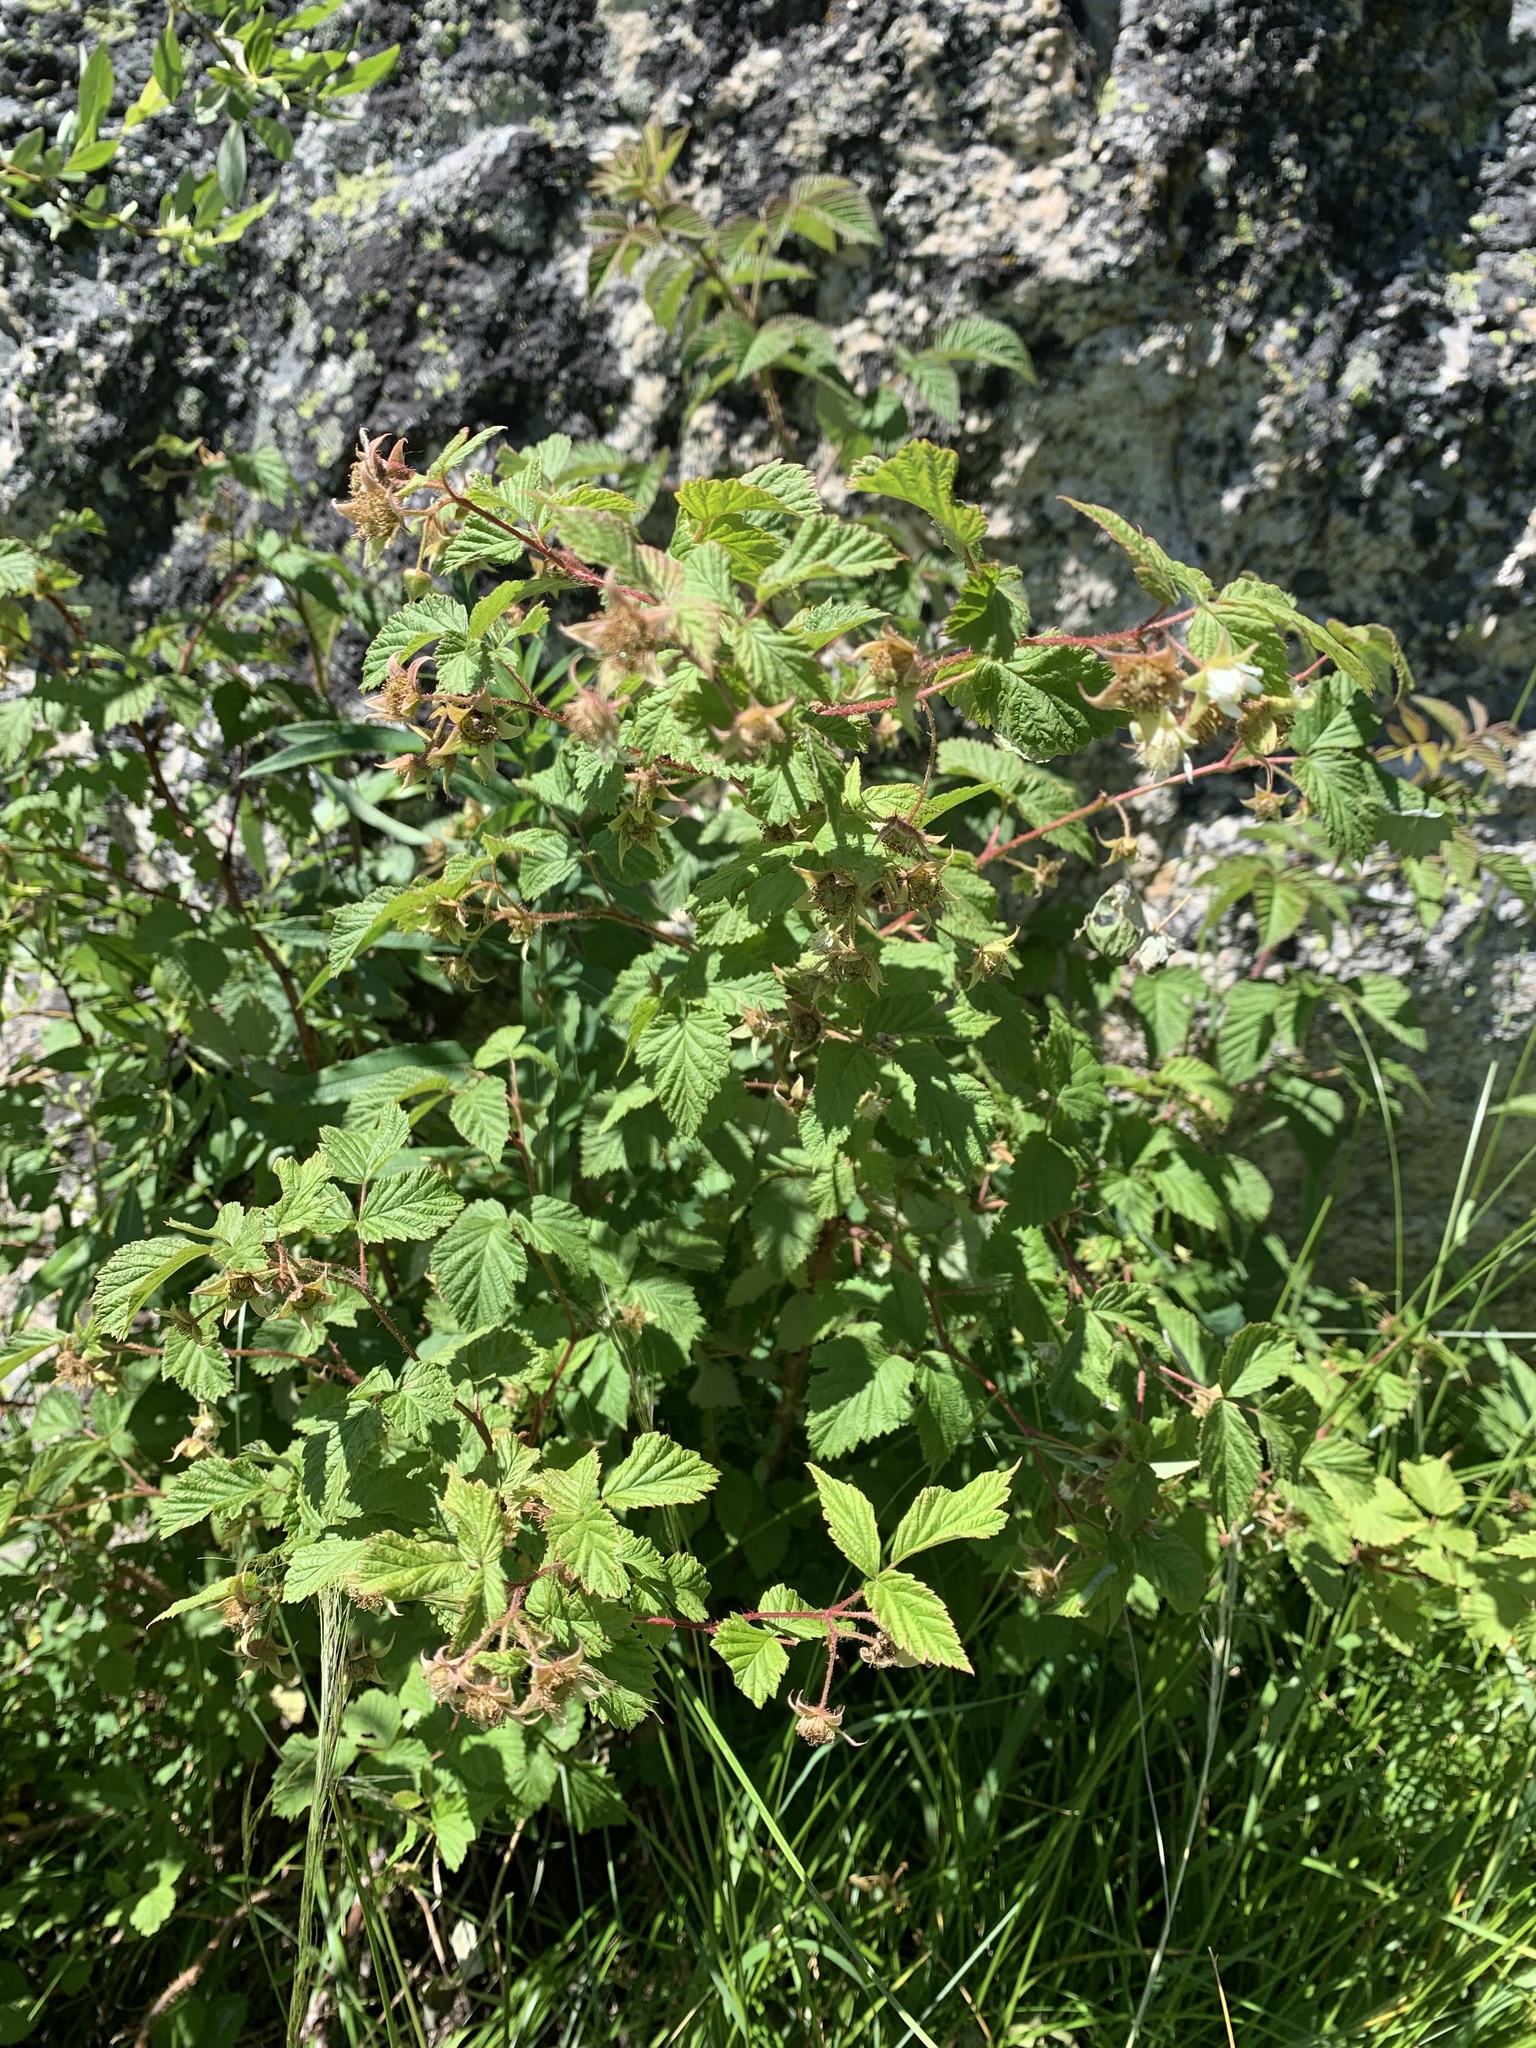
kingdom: Plantae
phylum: Tracheophyta
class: Magnoliopsida
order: Rosales
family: Rosaceae
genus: Rubus
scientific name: Rubus idaeus
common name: Raspberry
